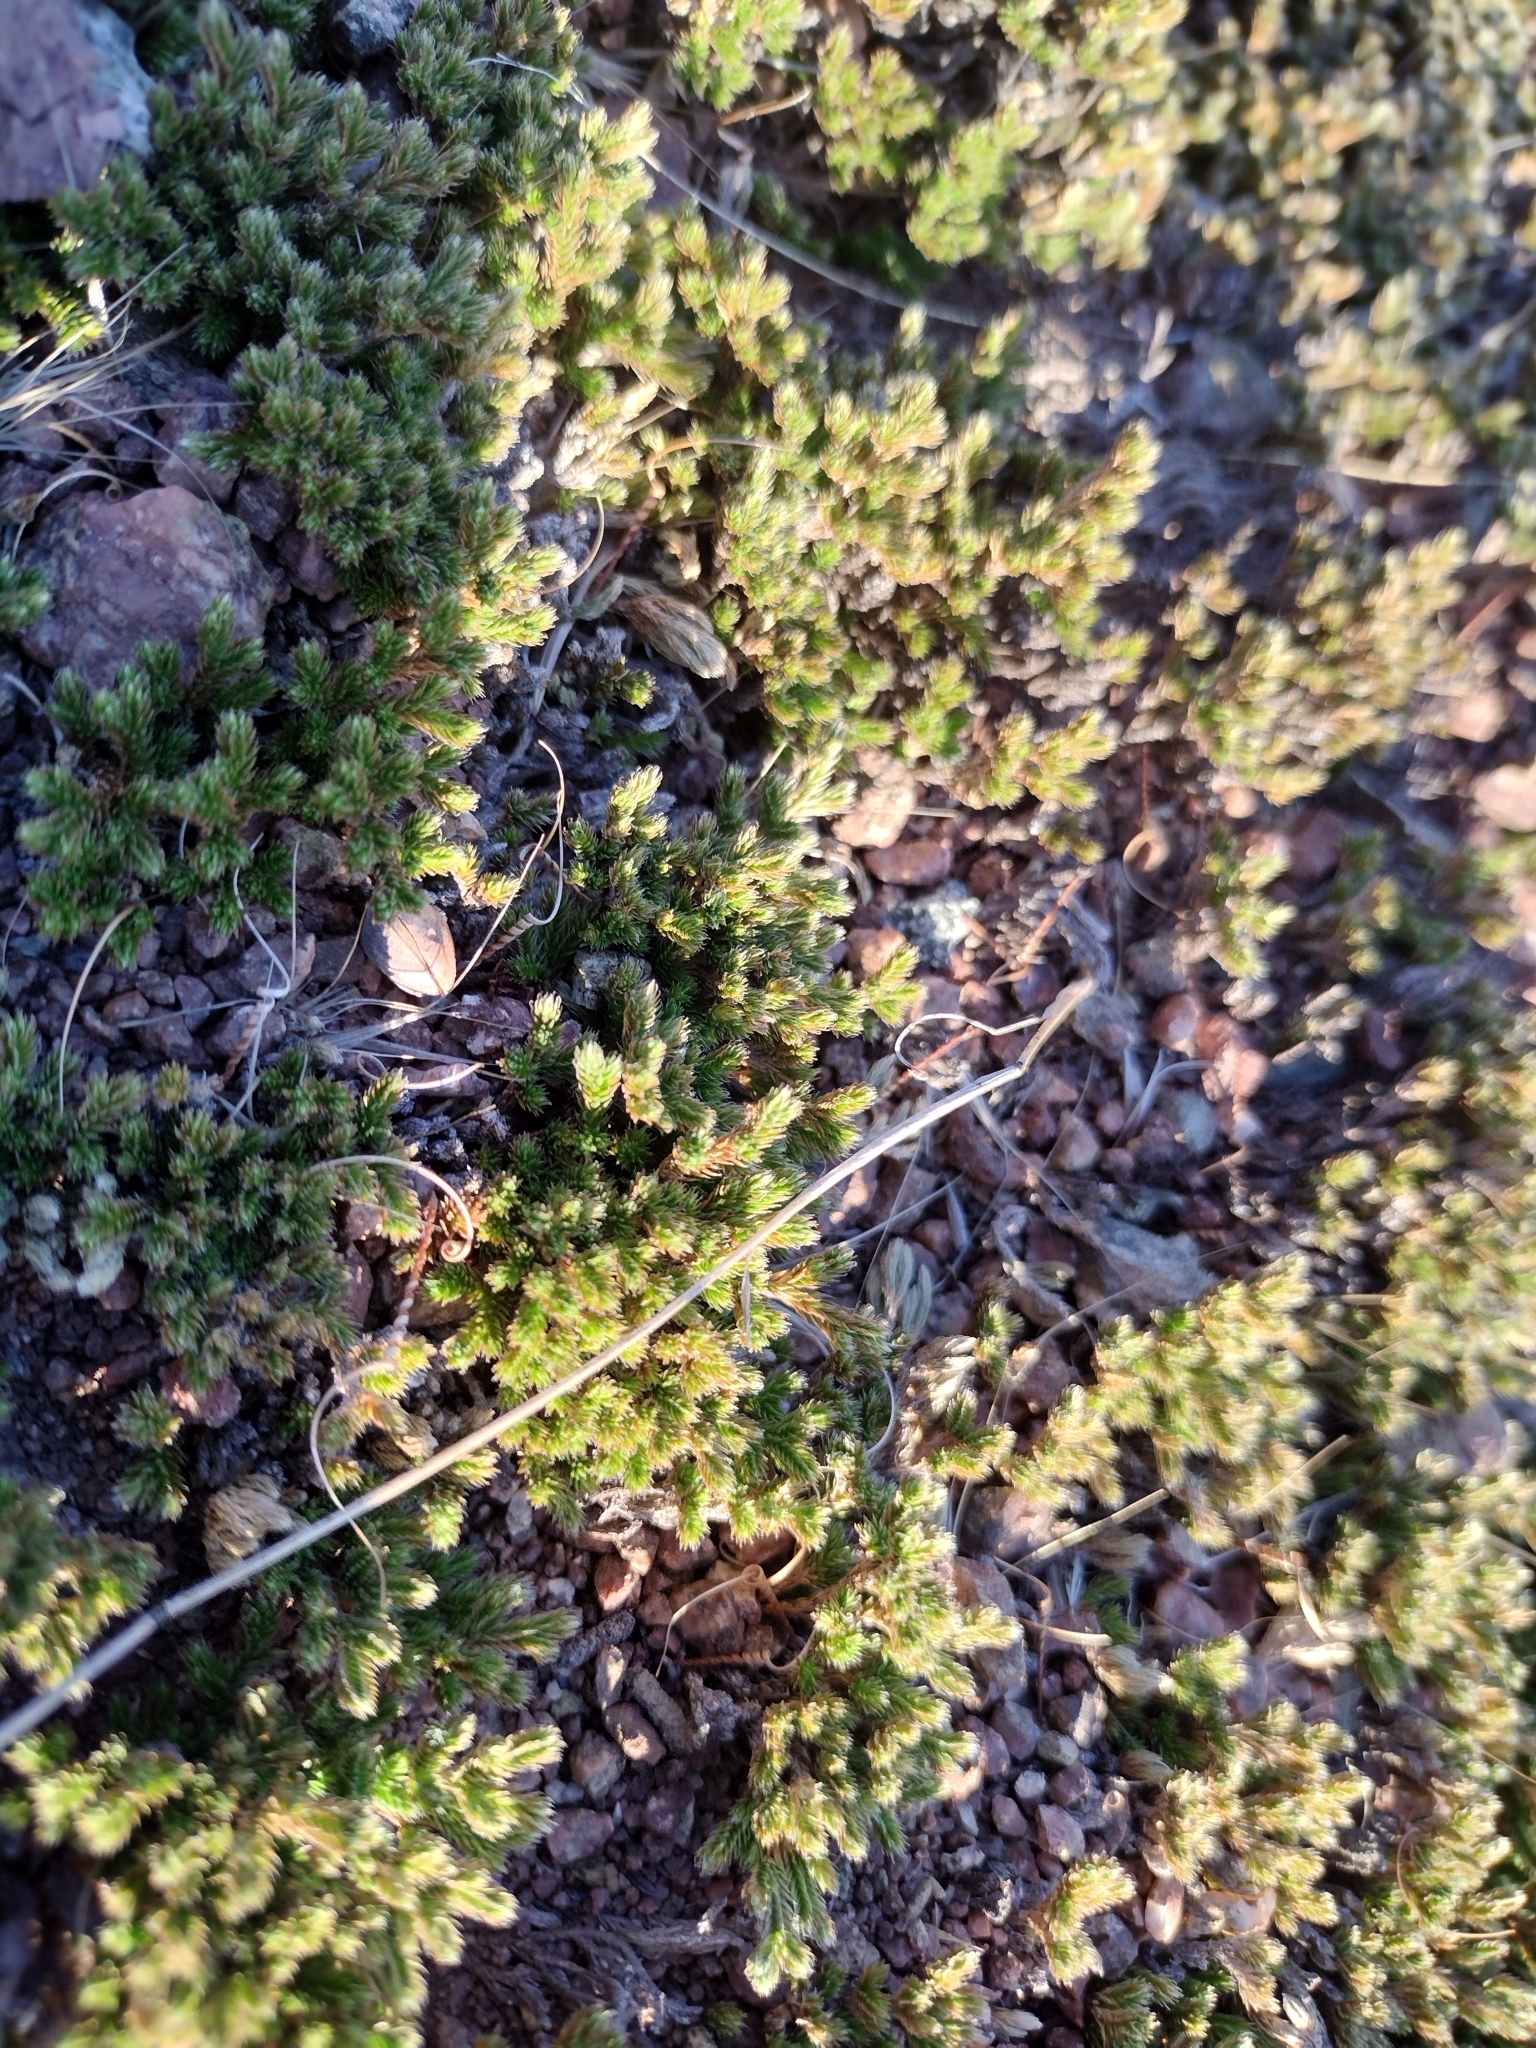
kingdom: Plantae
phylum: Tracheophyta
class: Lycopodiopsida
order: Selaginellales
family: Selaginellaceae
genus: Selaginella
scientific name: Selaginella bigelovii
